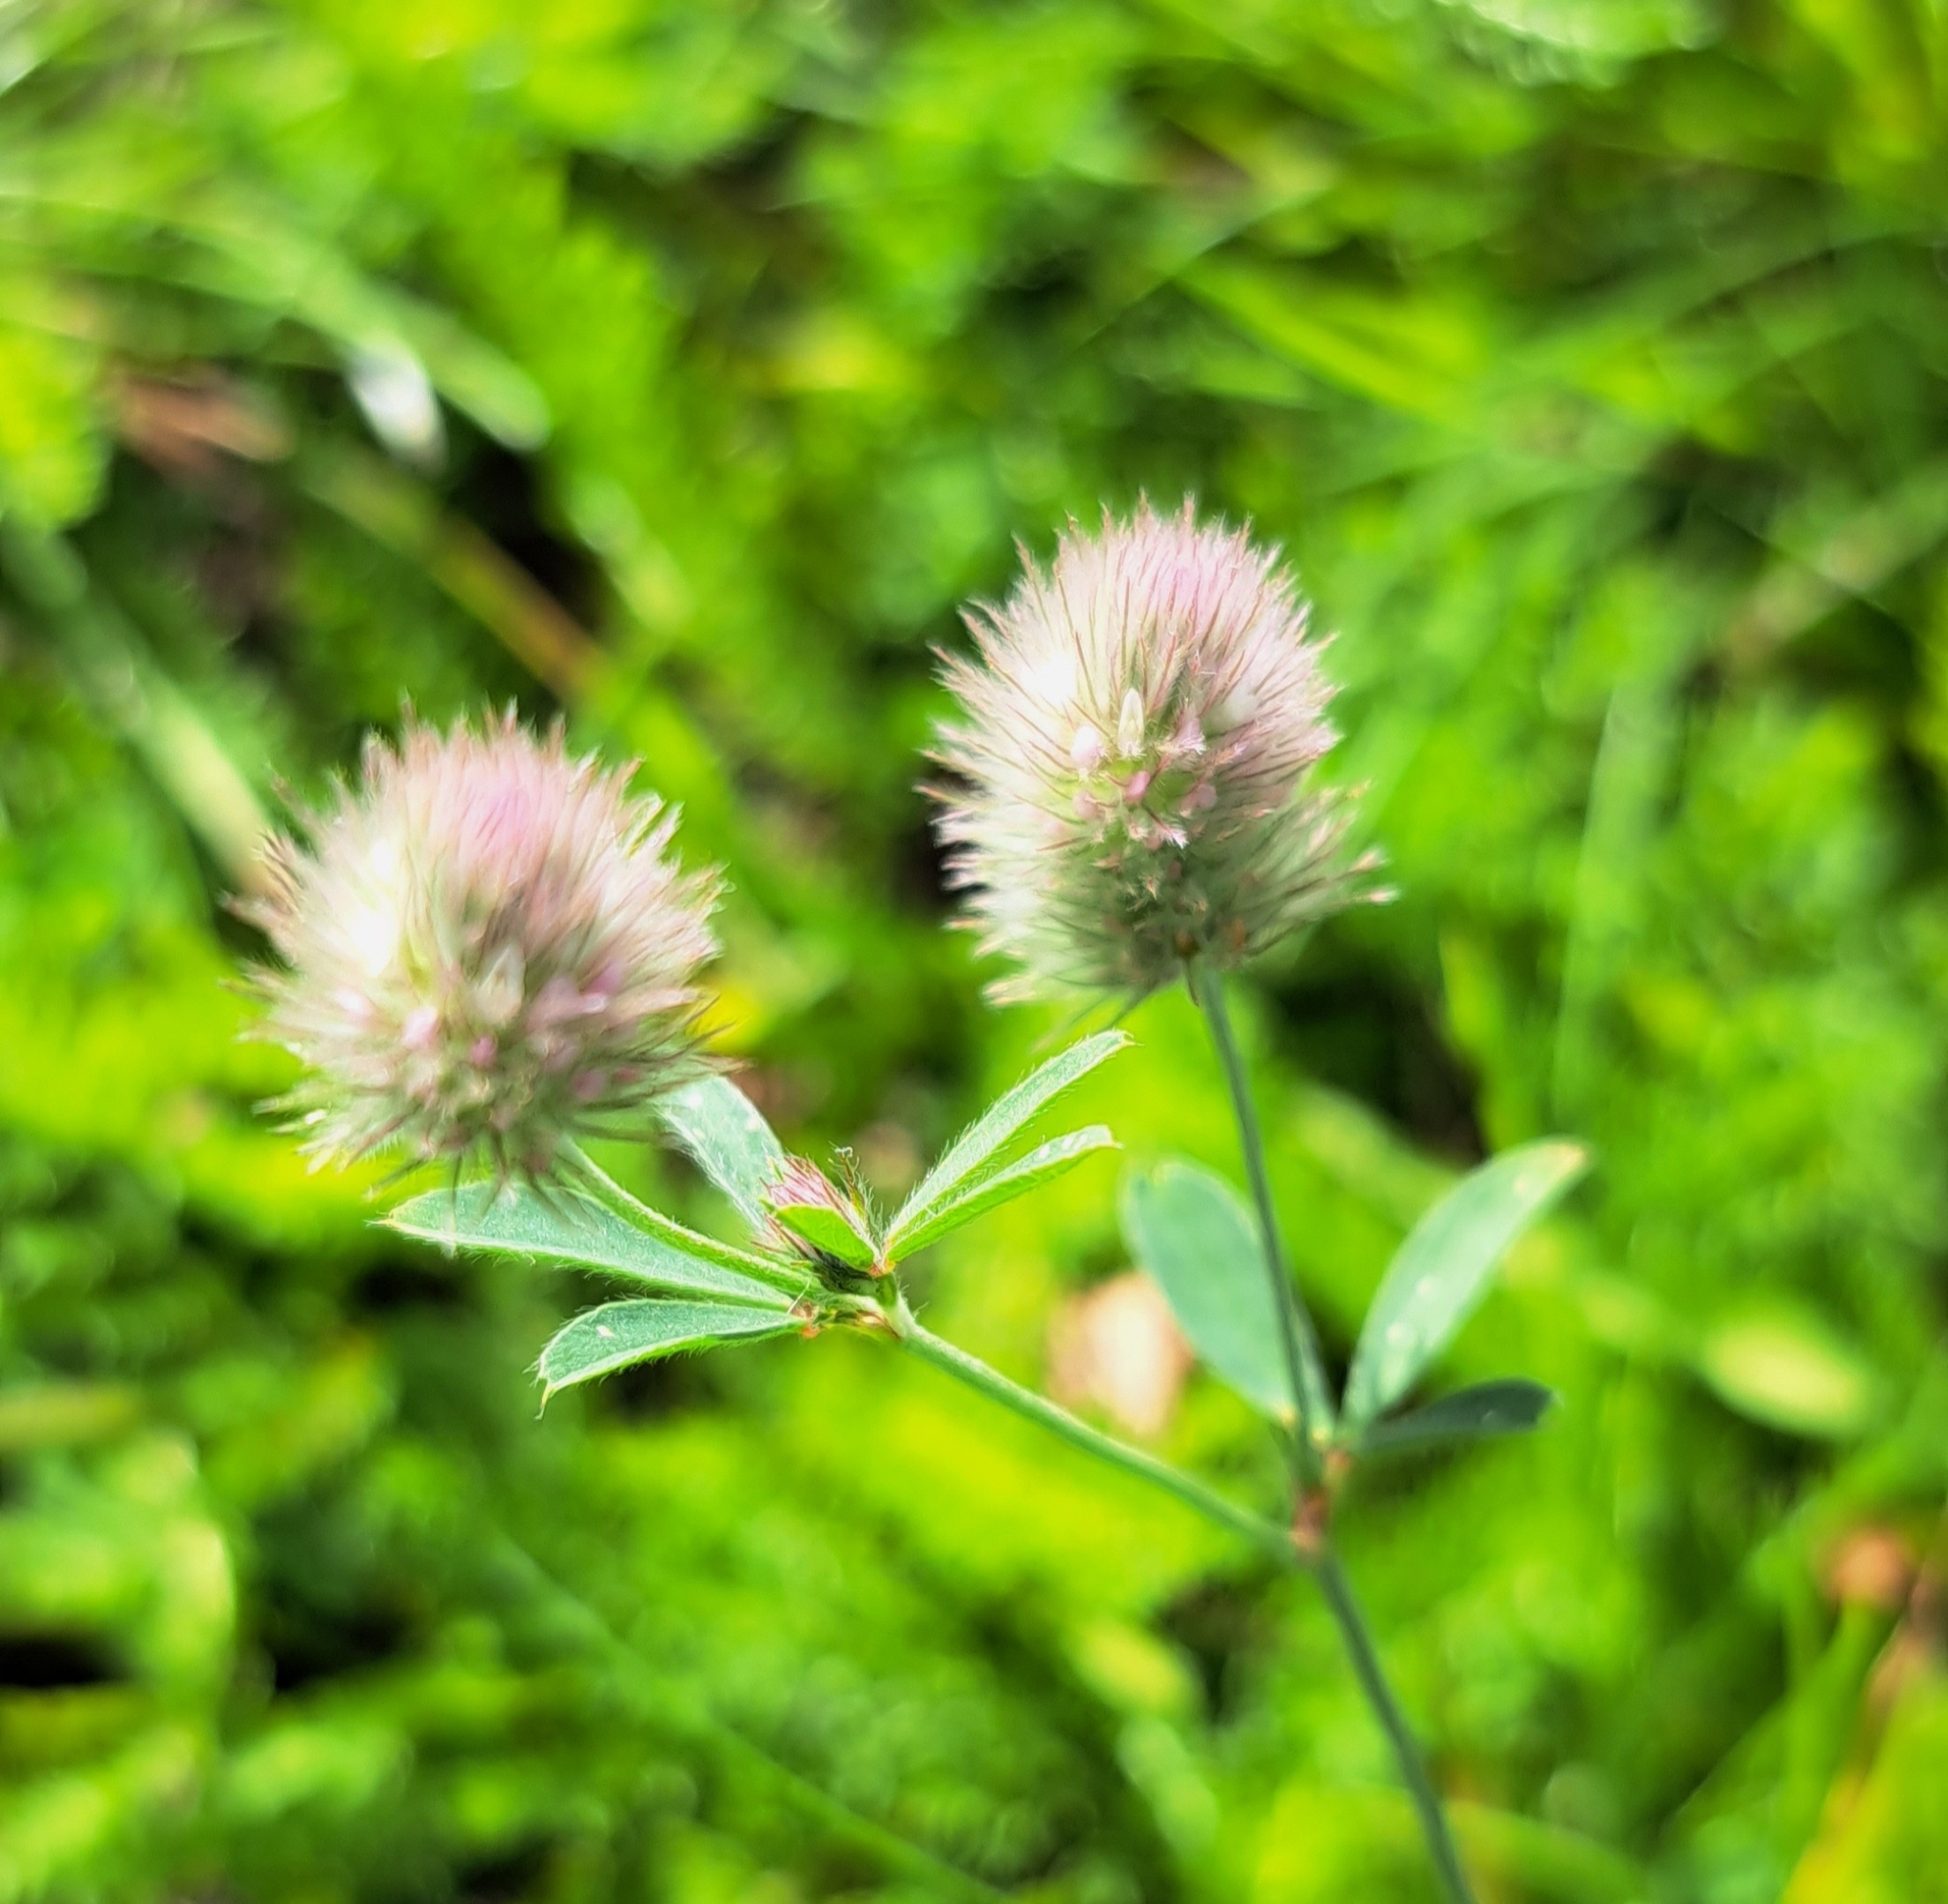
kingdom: Plantae
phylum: Tracheophyta
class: Magnoliopsida
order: Fabales
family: Fabaceae
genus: Trifolium
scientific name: Trifolium arvense
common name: Hare's-foot clover
